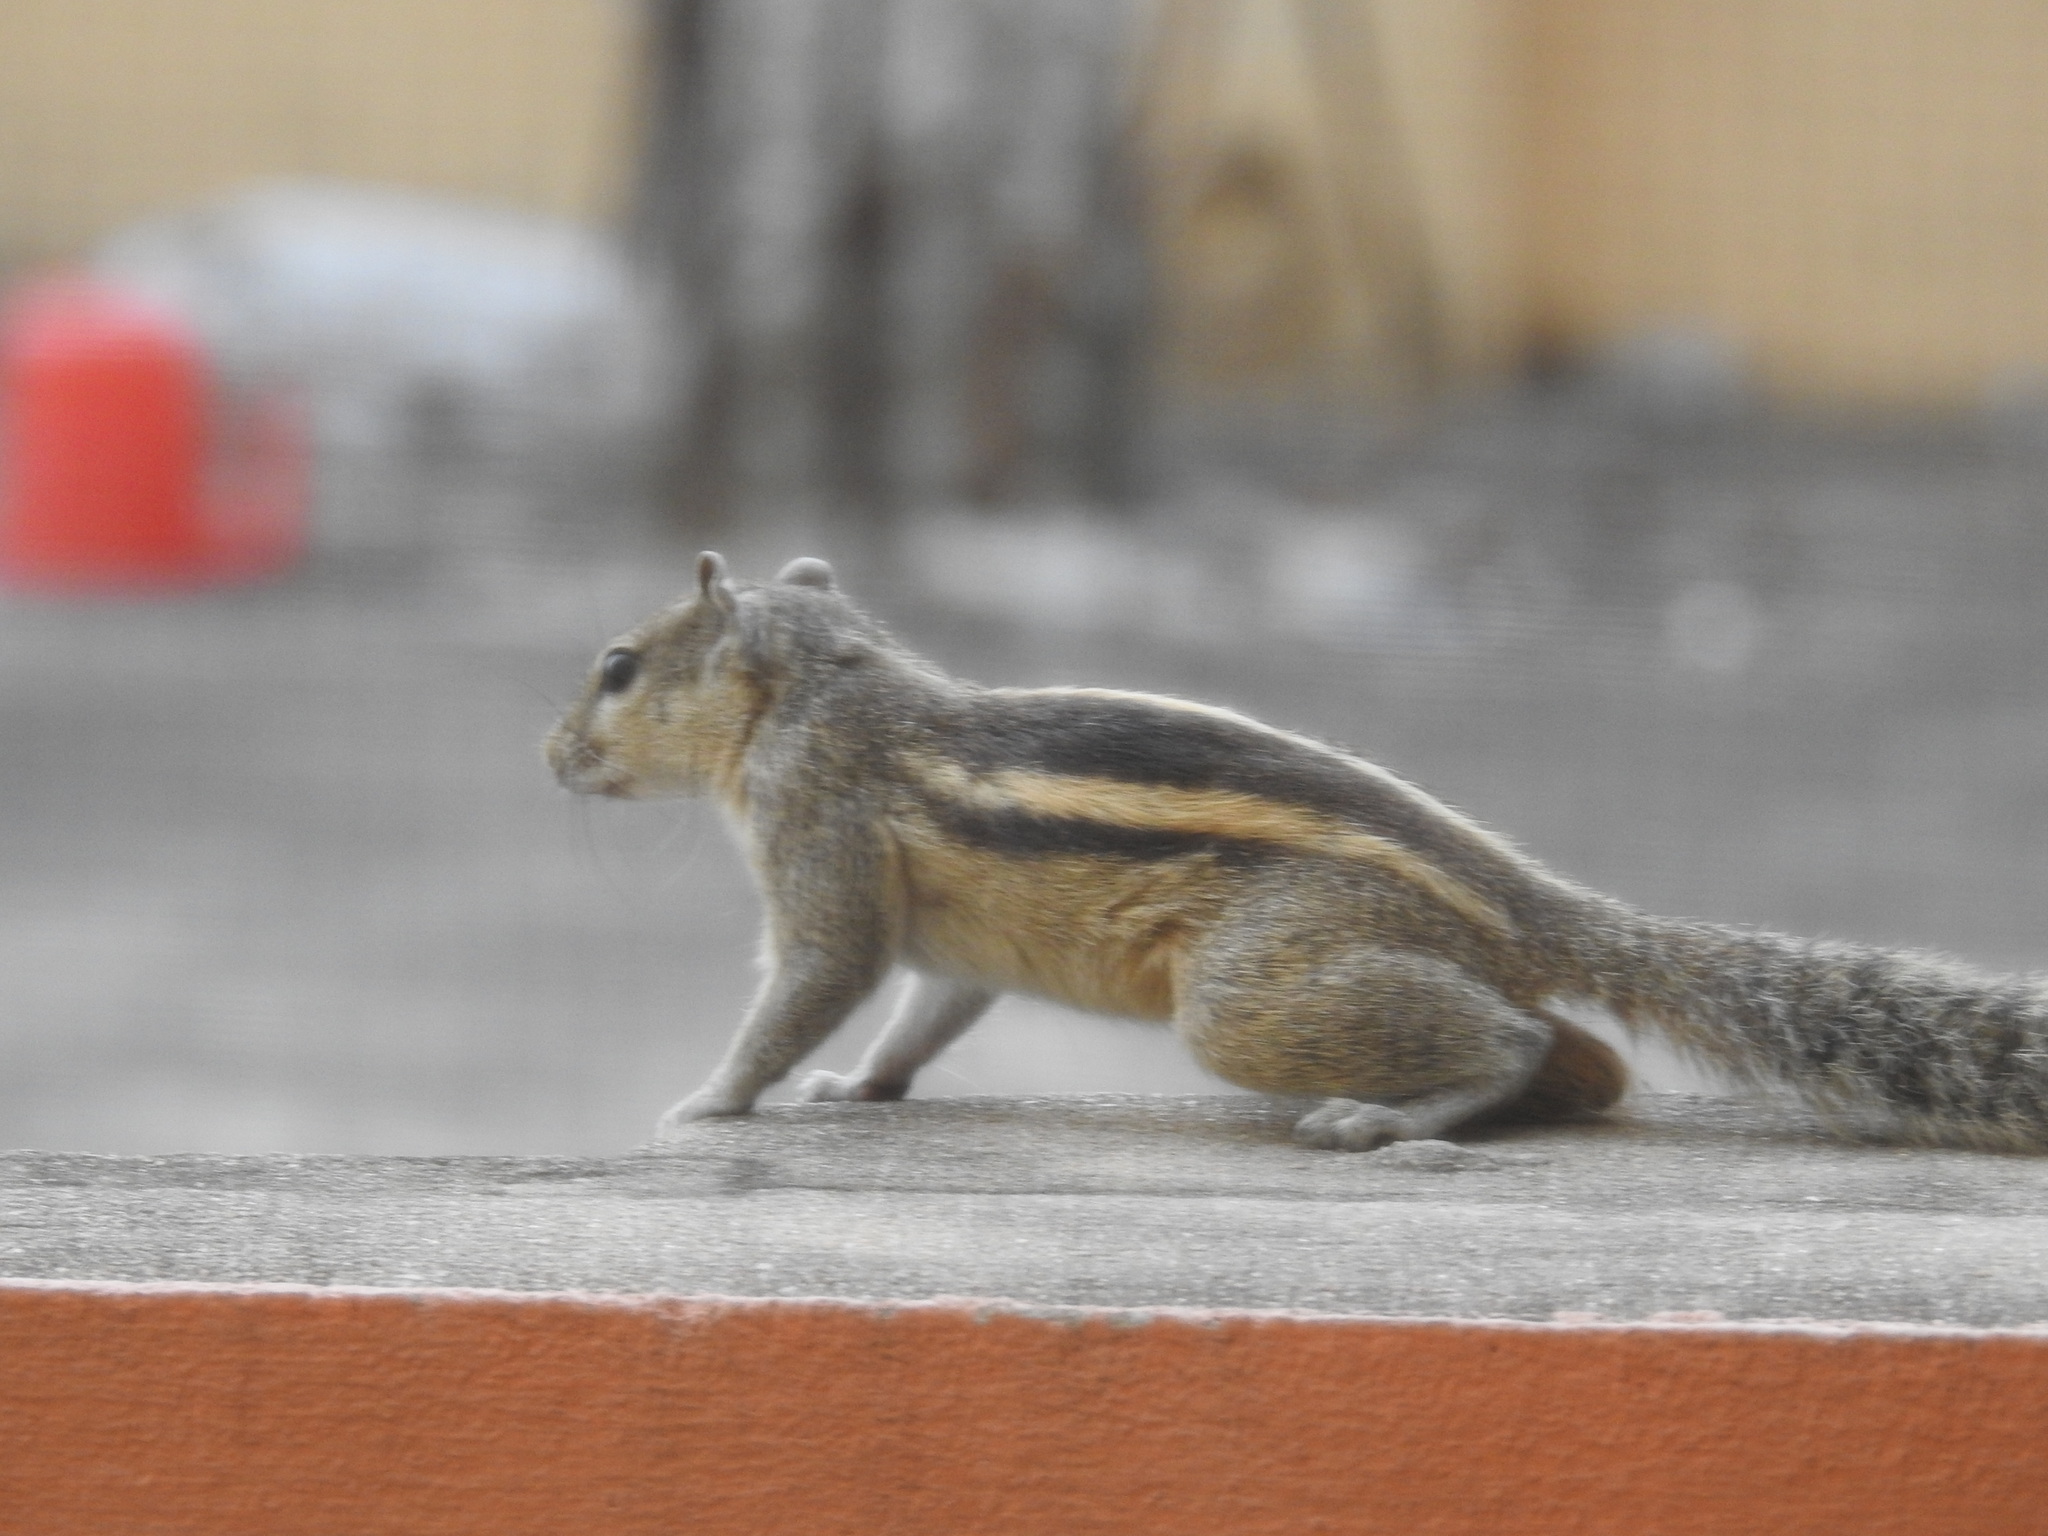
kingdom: Animalia
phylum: Chordata
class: Mammalia
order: Rodentia
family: Sciuridae
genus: Funambulus
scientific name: Funambulus palmarum
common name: Indian palm squirrel
